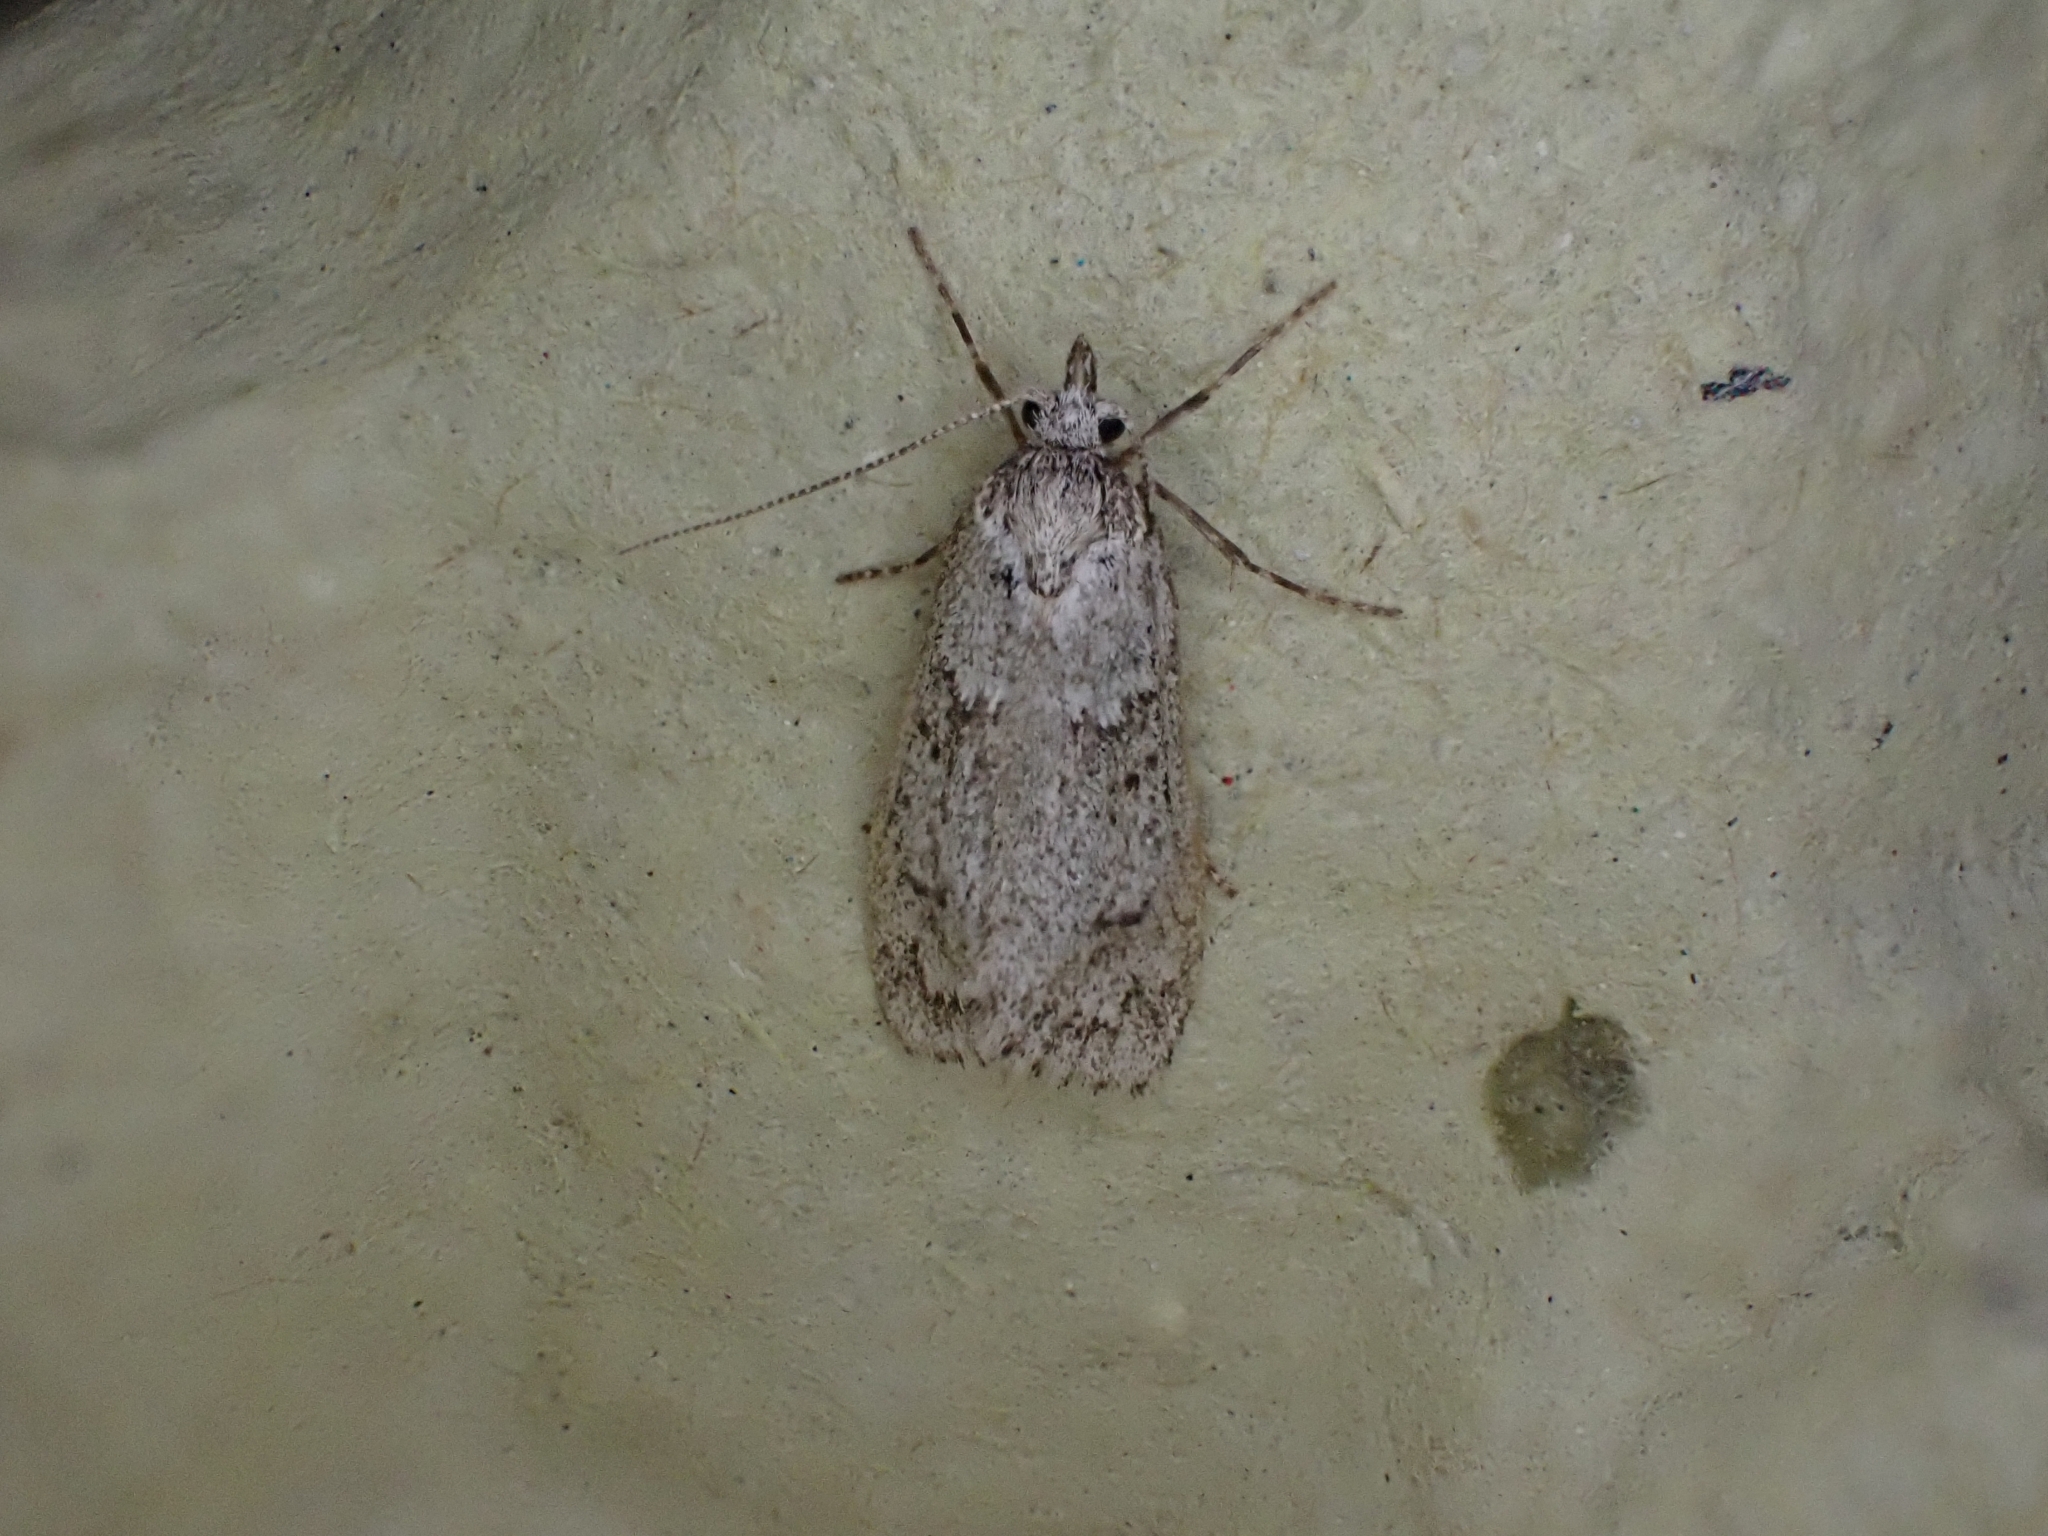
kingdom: Animalia
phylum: Arthropoda
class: Insecta
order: Lepidoptera
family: Lypusidae
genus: Diurnea
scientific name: Diurnea fagella
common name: March tubic
